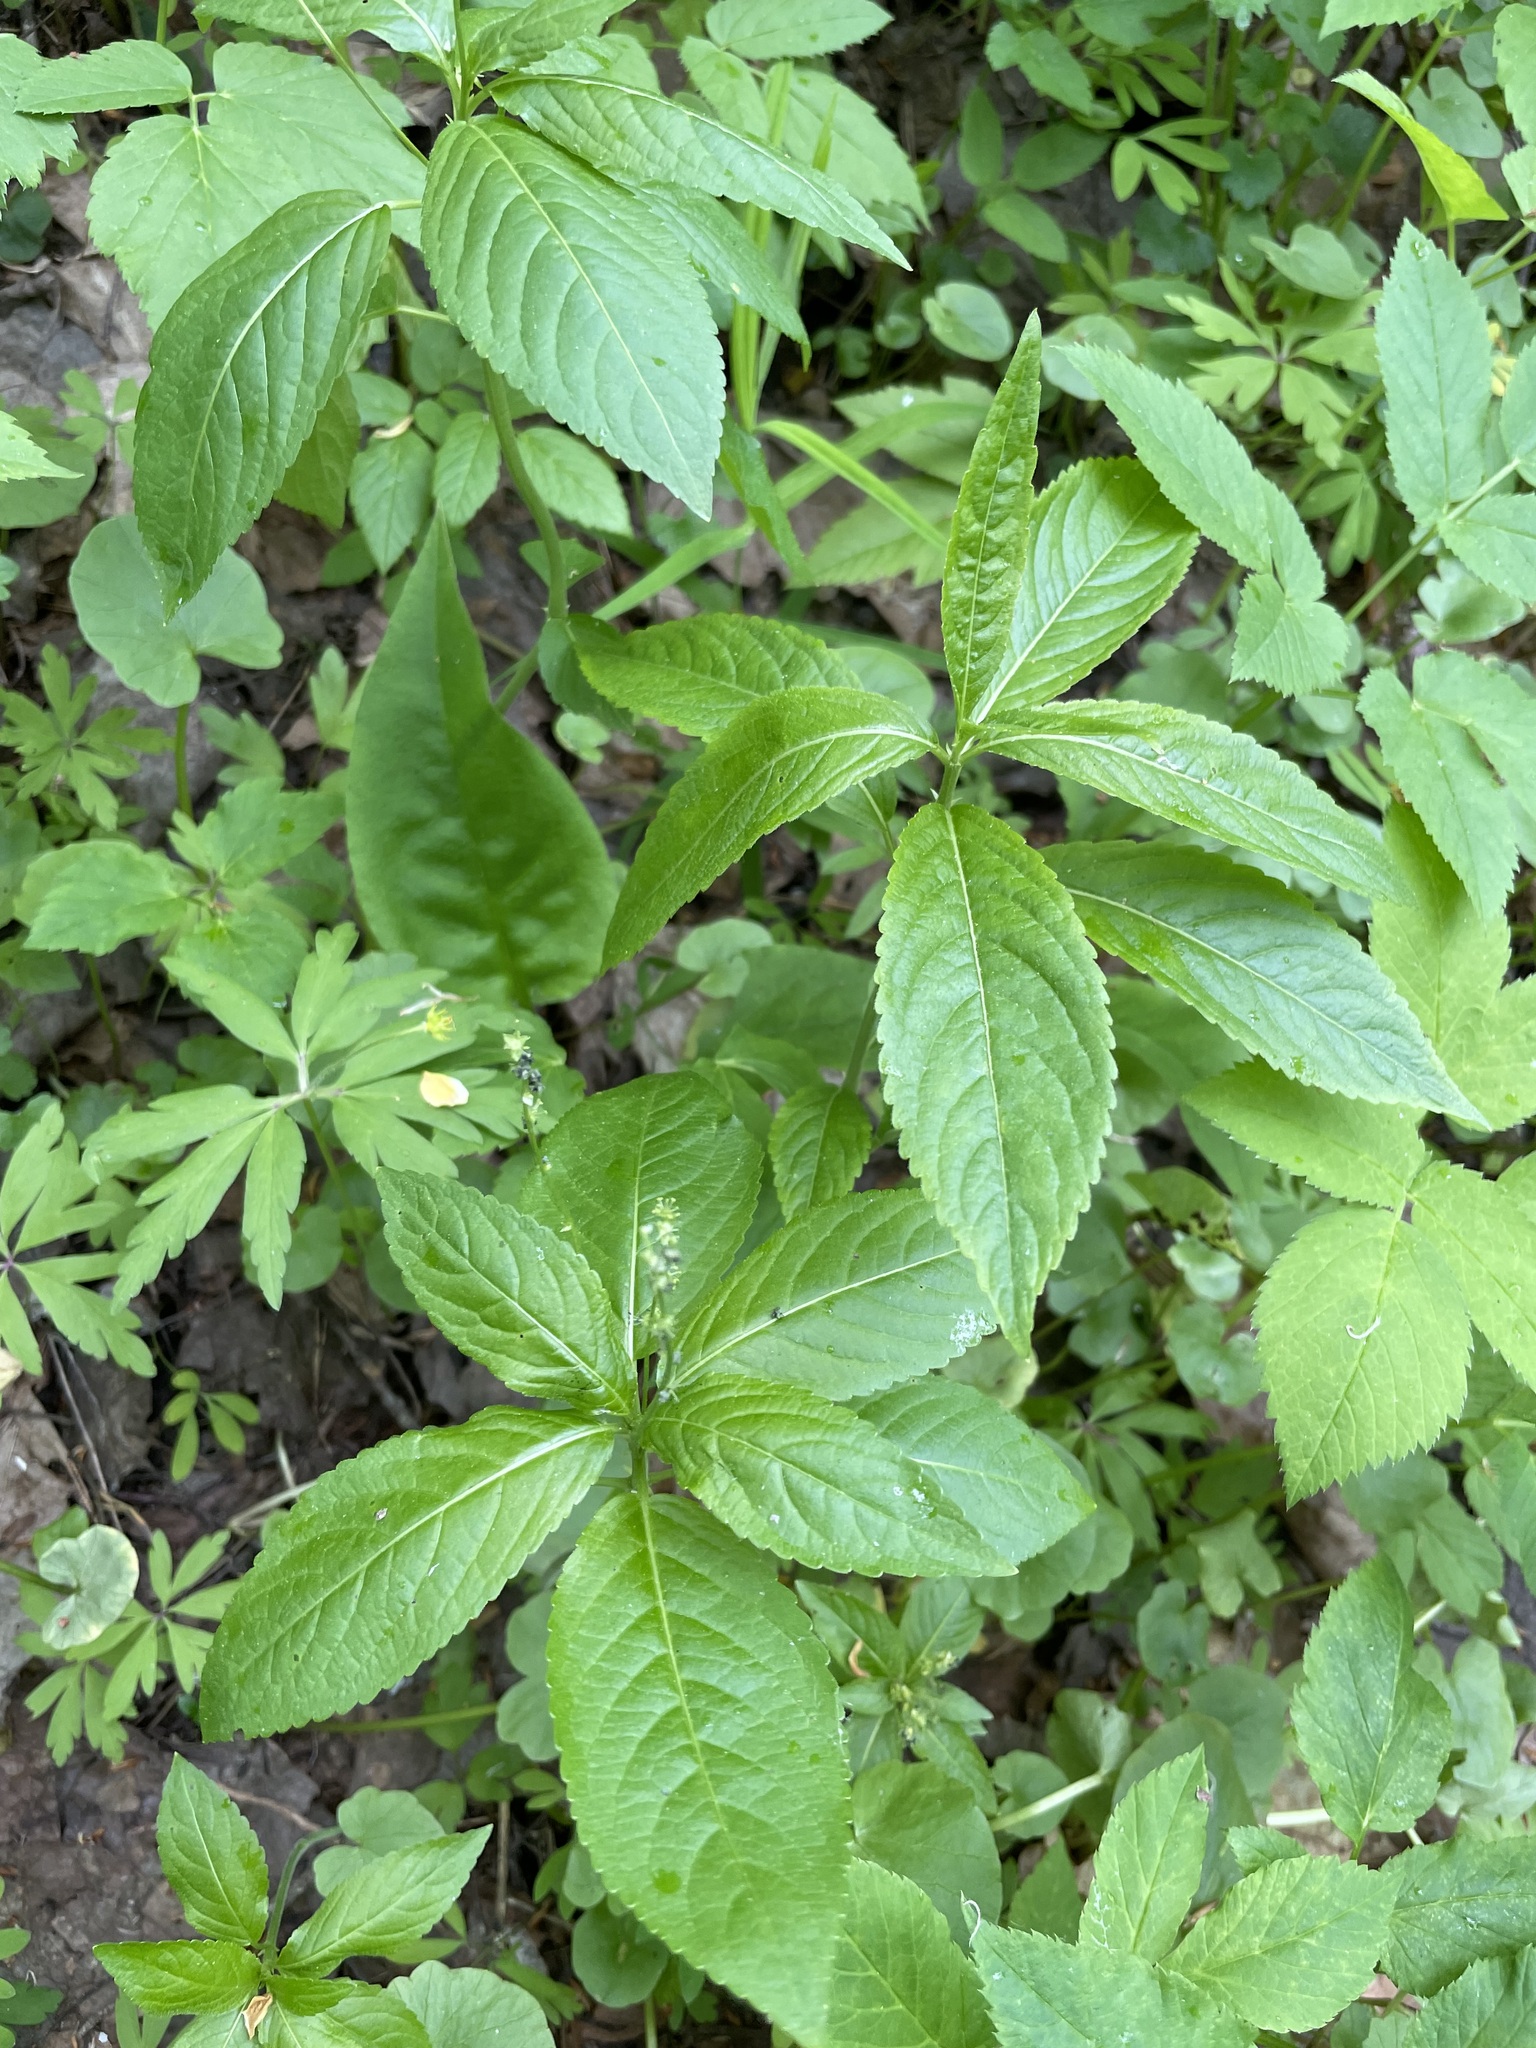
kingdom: Plantae
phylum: Tracheophyta
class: Magnoliopsida
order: Malpighiales
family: Euphorbiaceae
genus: Mercurialis
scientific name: Mercurialis perennis
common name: Dog mercury
